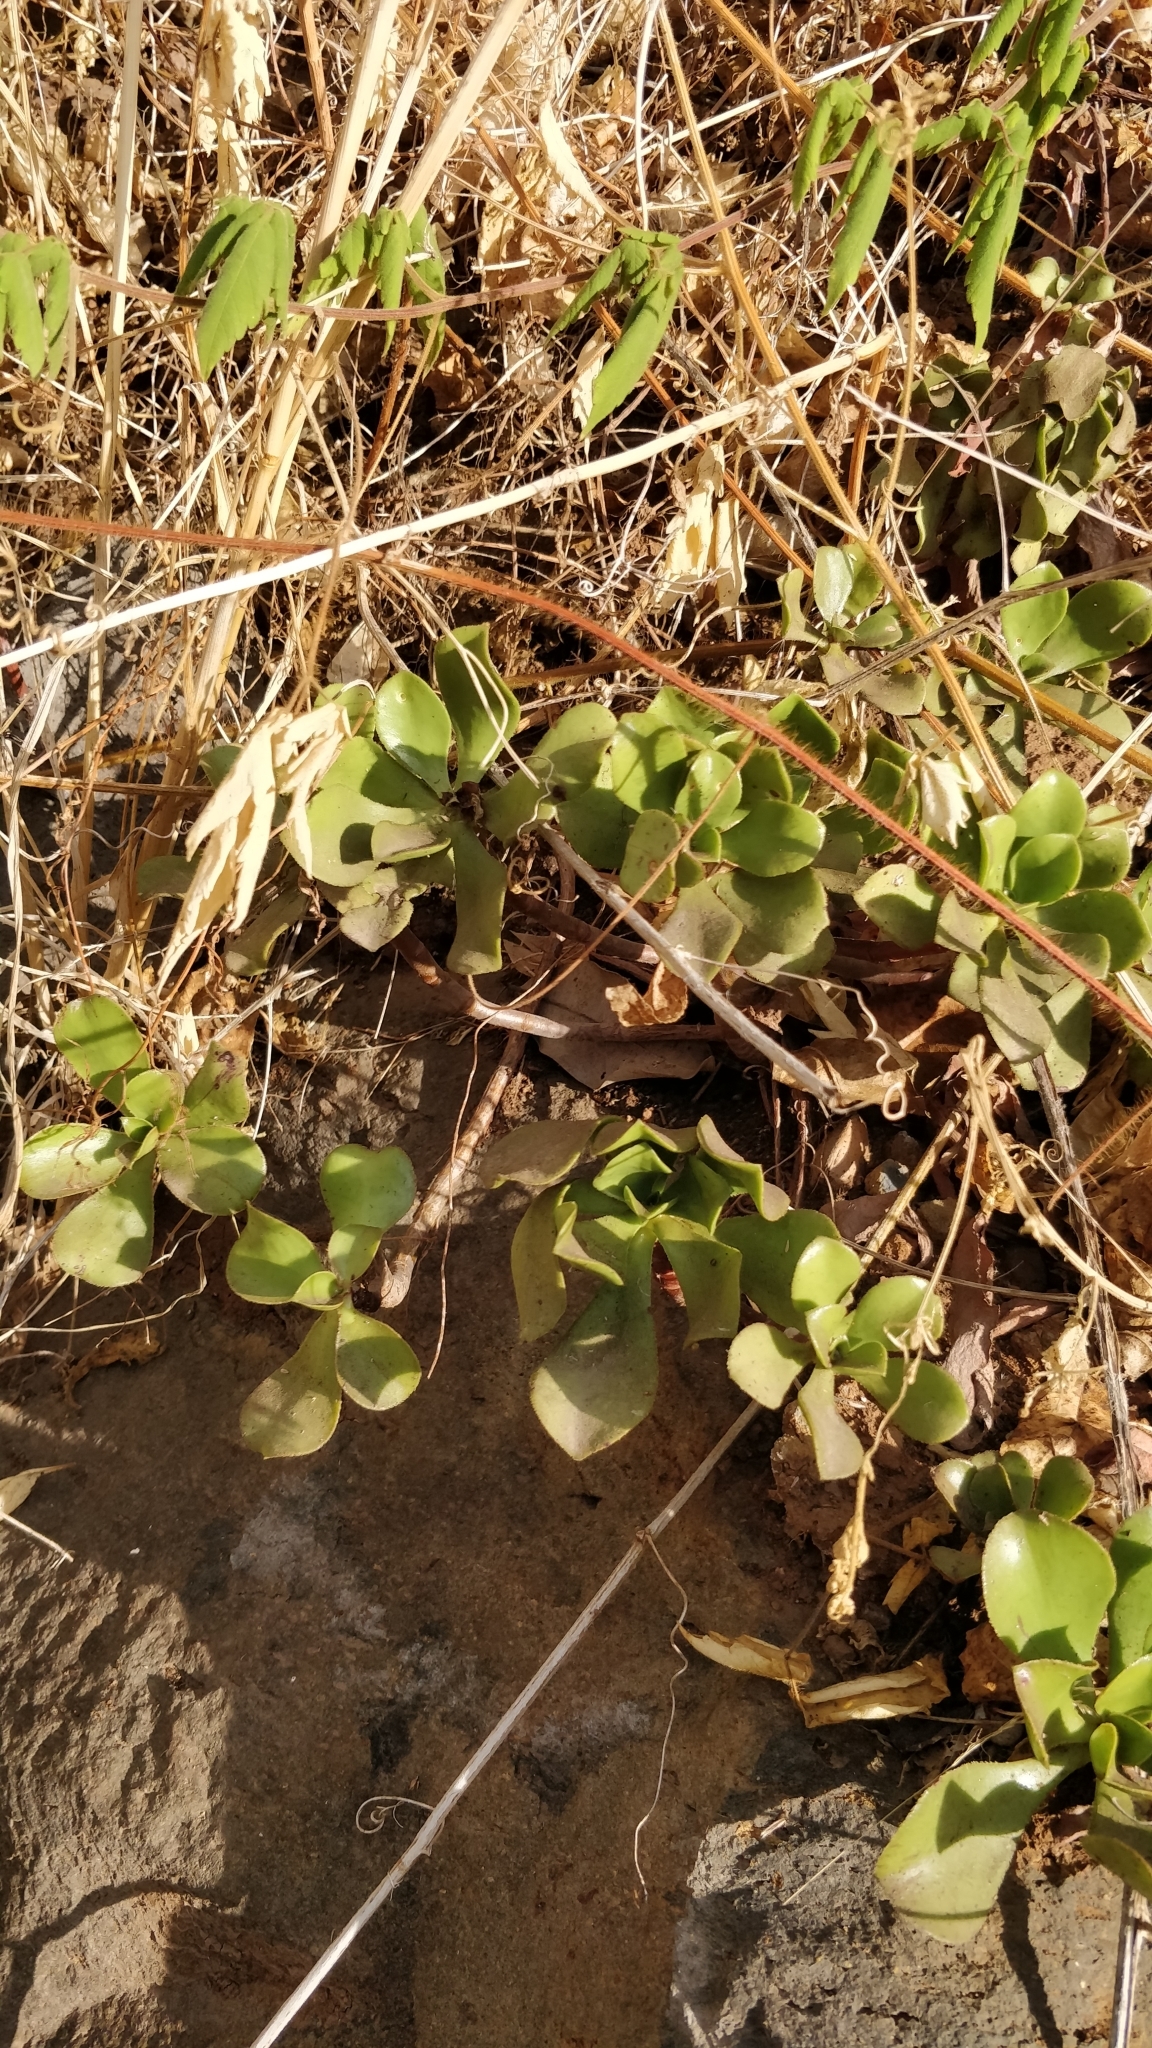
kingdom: Plantae
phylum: Tracheophyta
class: Magnoliopsida
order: Saxifragales
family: Crassulaceae
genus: Aeonium
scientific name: Aeonium glutinosum
